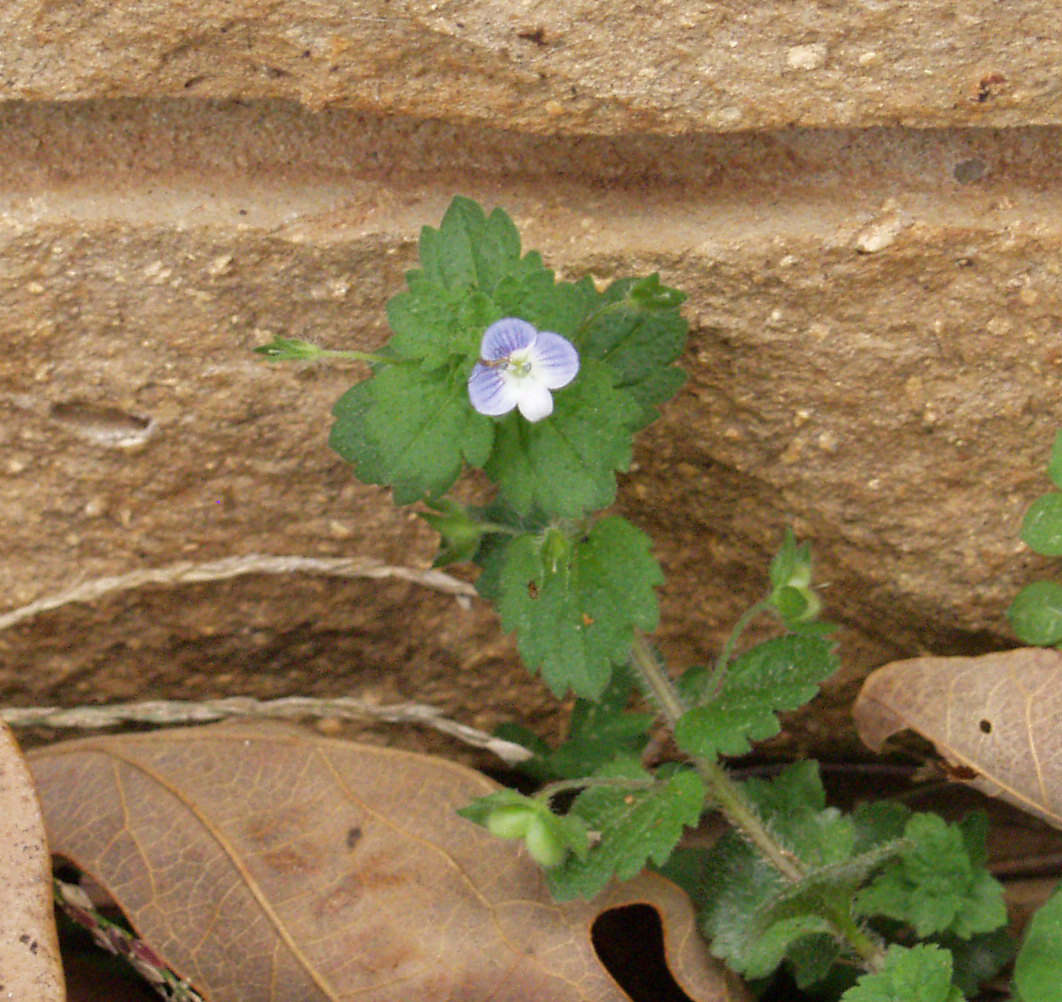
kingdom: Plantae
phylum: Tracheophyta
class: Magnoliopsida
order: Lamiales
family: Plantaginaceae
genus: Veronica
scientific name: Veronica persica
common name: Common field-speedwell
